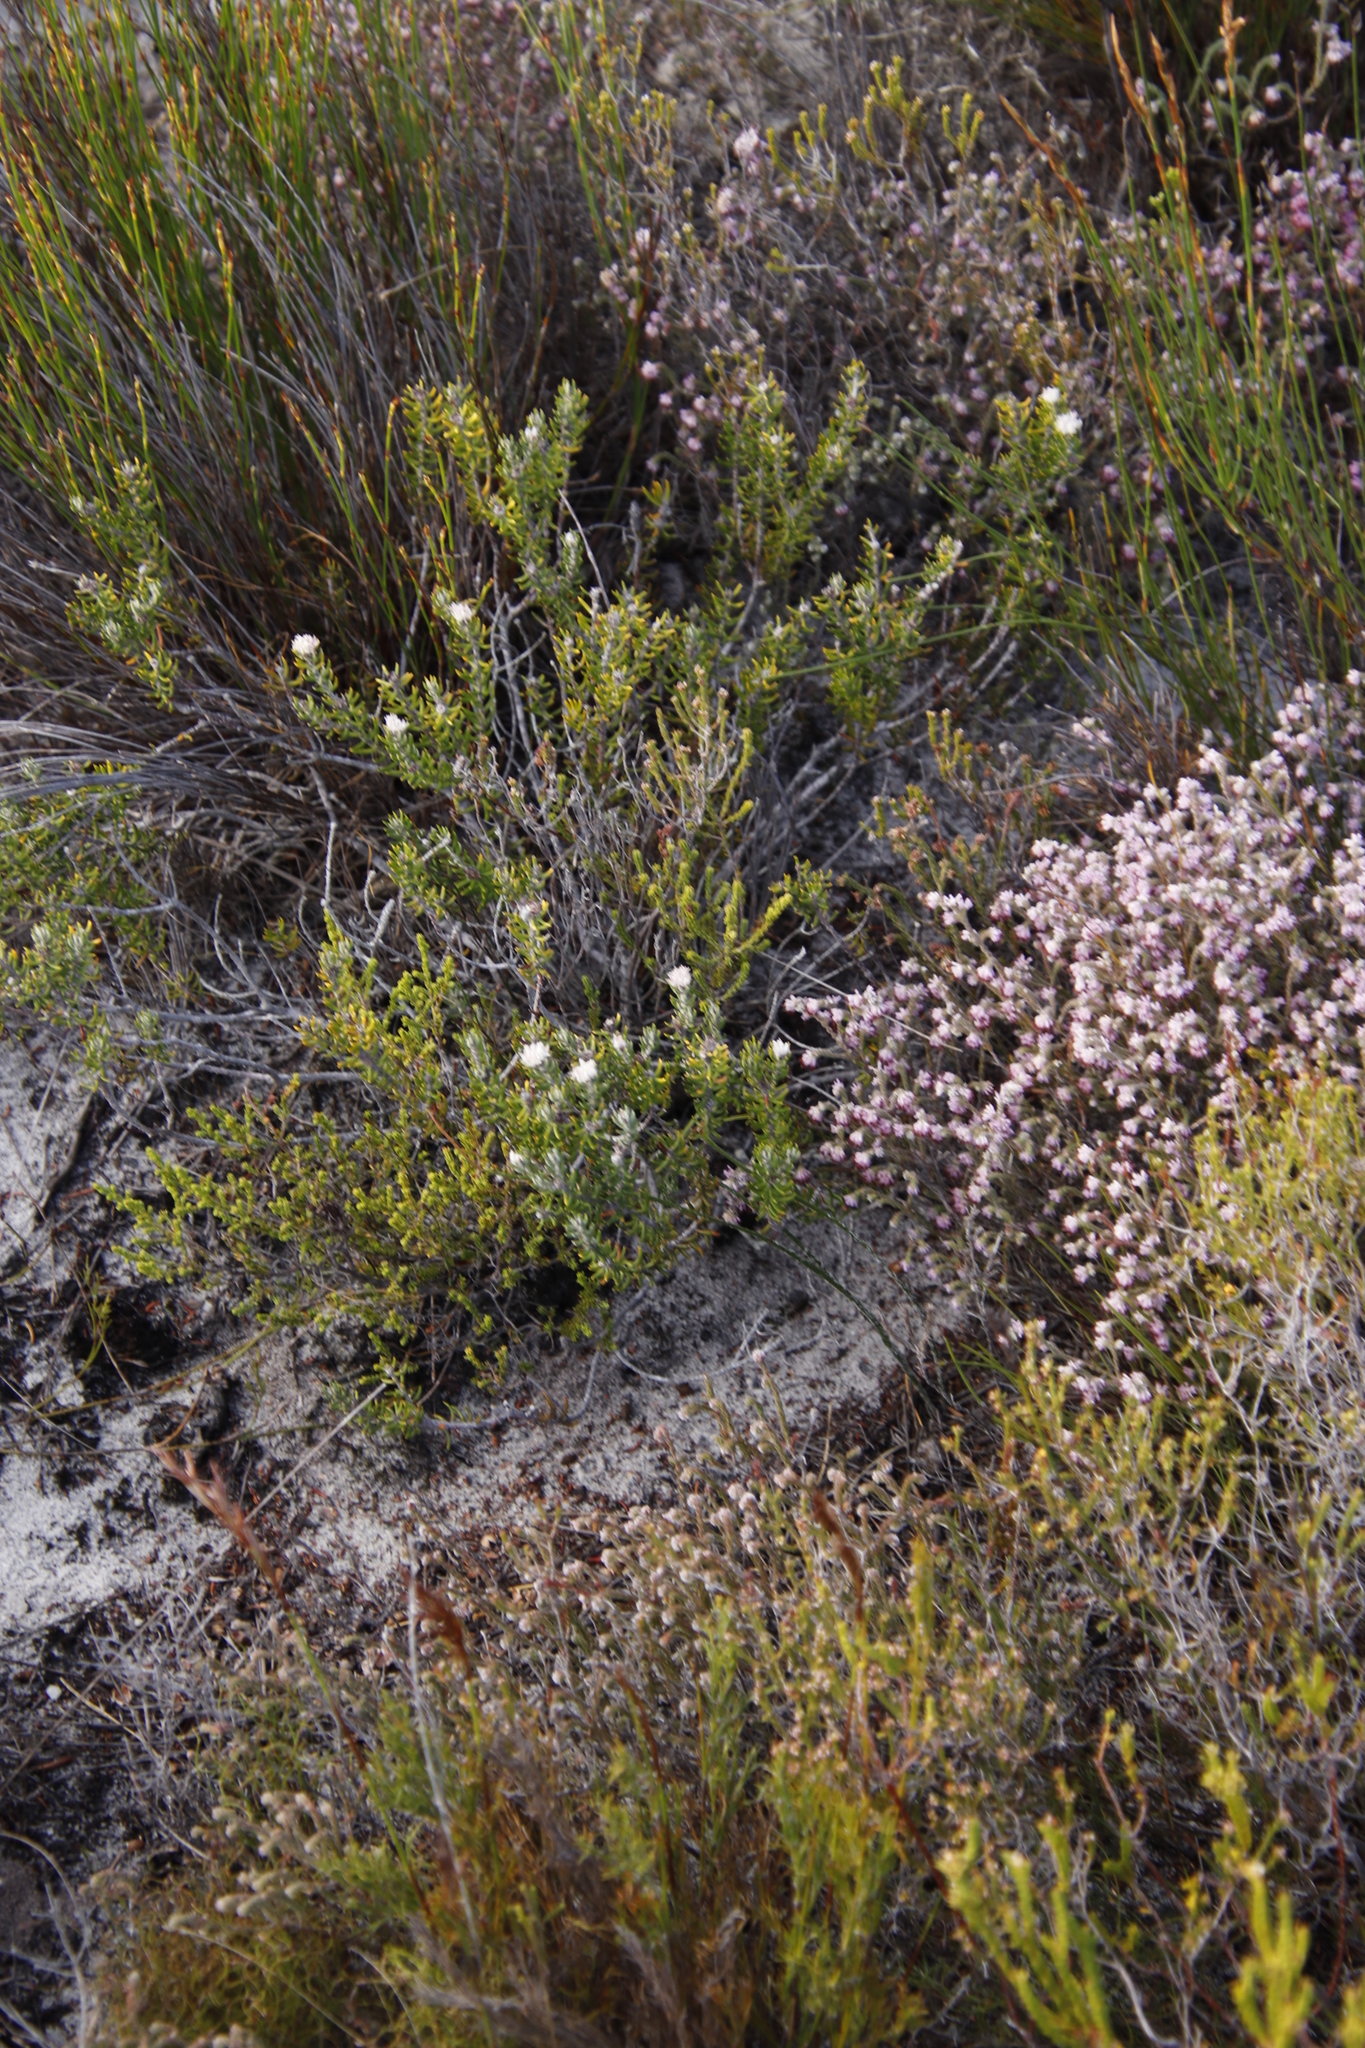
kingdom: Plantae
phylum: Tracheophyta
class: Magnoliopsida
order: Rosales
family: Rhamnaceae
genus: Trichocephalus
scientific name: Trichocephalus stipularis
